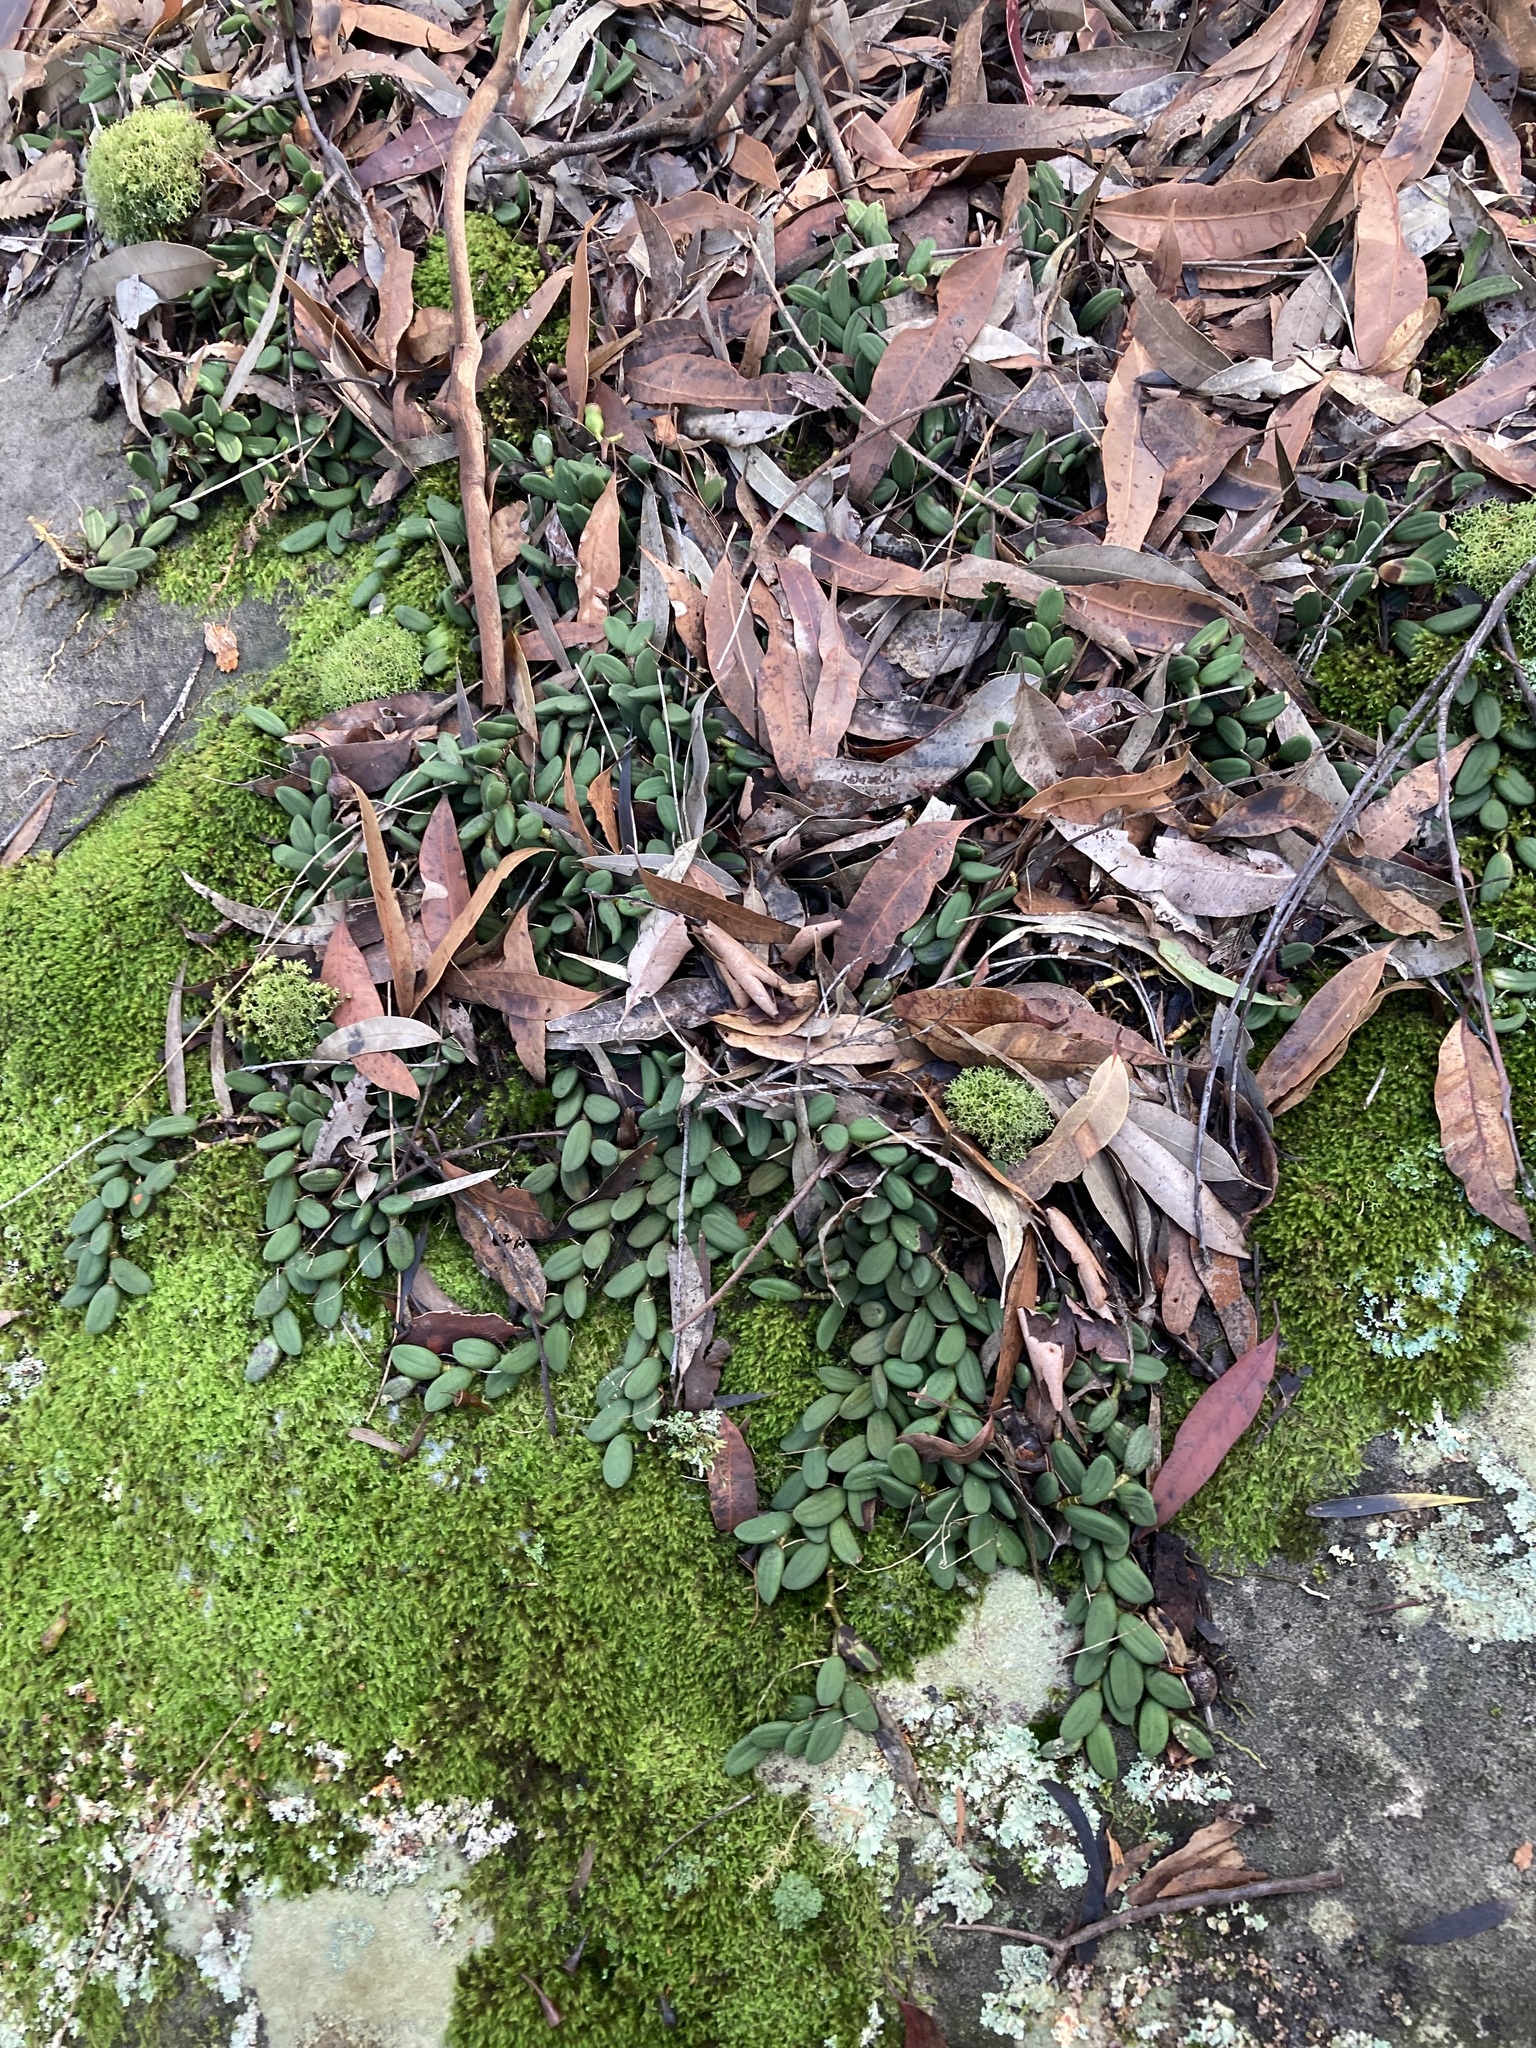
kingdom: Plantae
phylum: Tracheophyta
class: Liliopsida
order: Asparagales
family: Orchidaceae
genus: Dendrobium
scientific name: Dendrobium linguiforme
